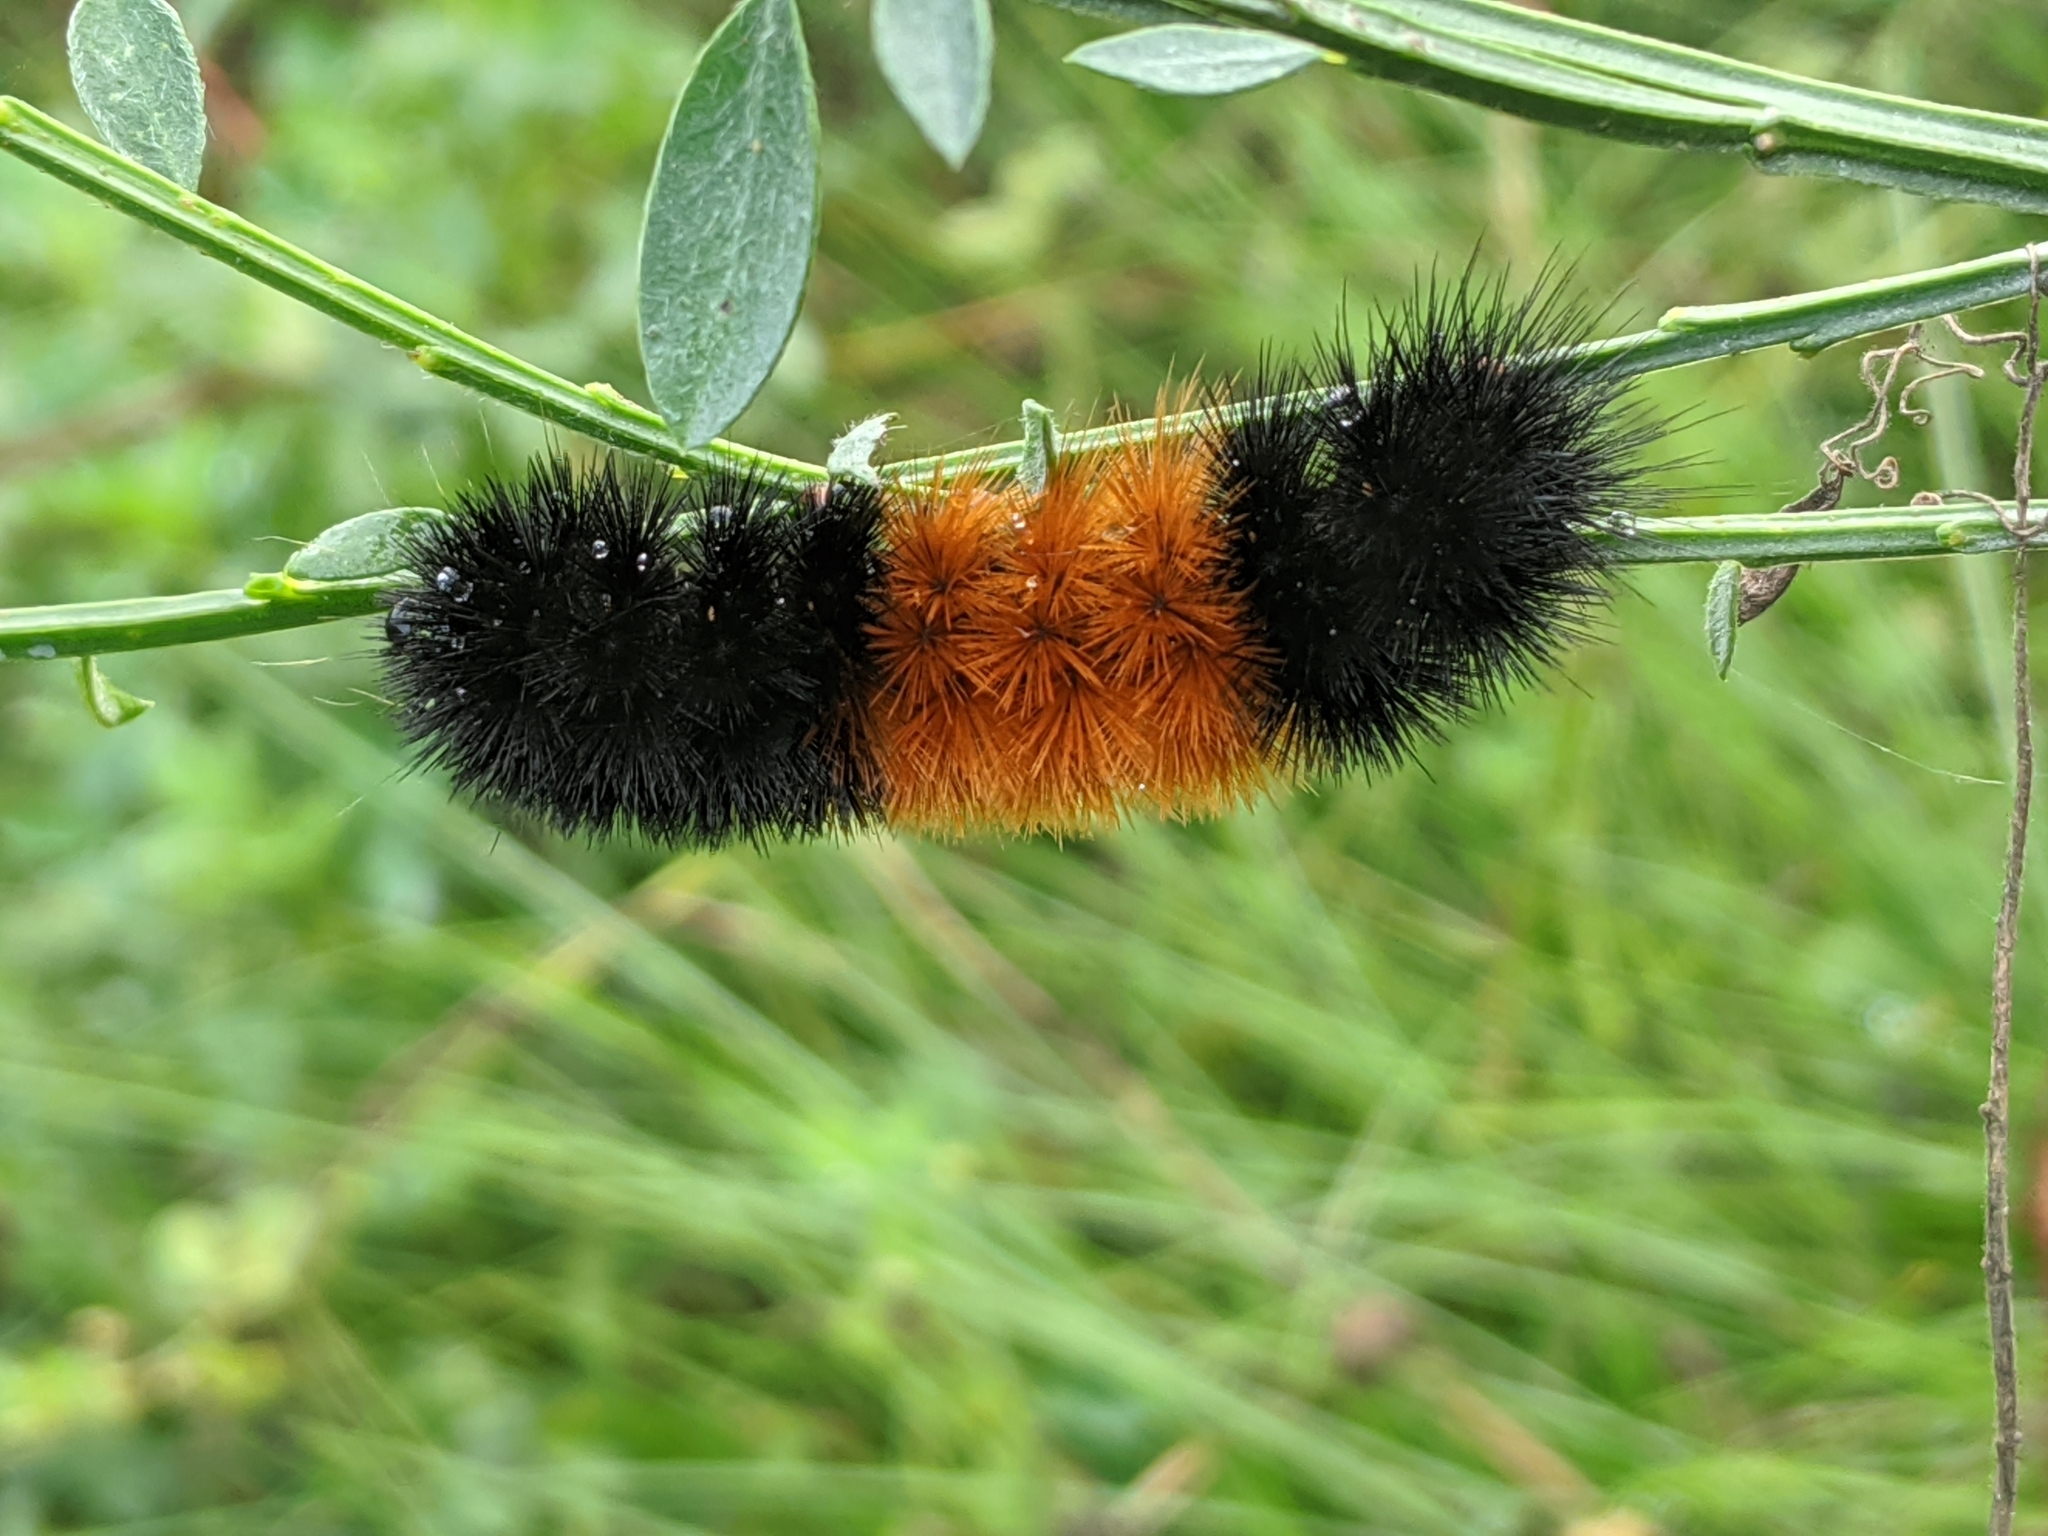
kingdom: Animalia
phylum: Arthropoda
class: Insecta
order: Lepidoptera
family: Erebidae
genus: Pyrrharctia
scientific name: Pyrrharctia isabella
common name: Isabella tiger moth
